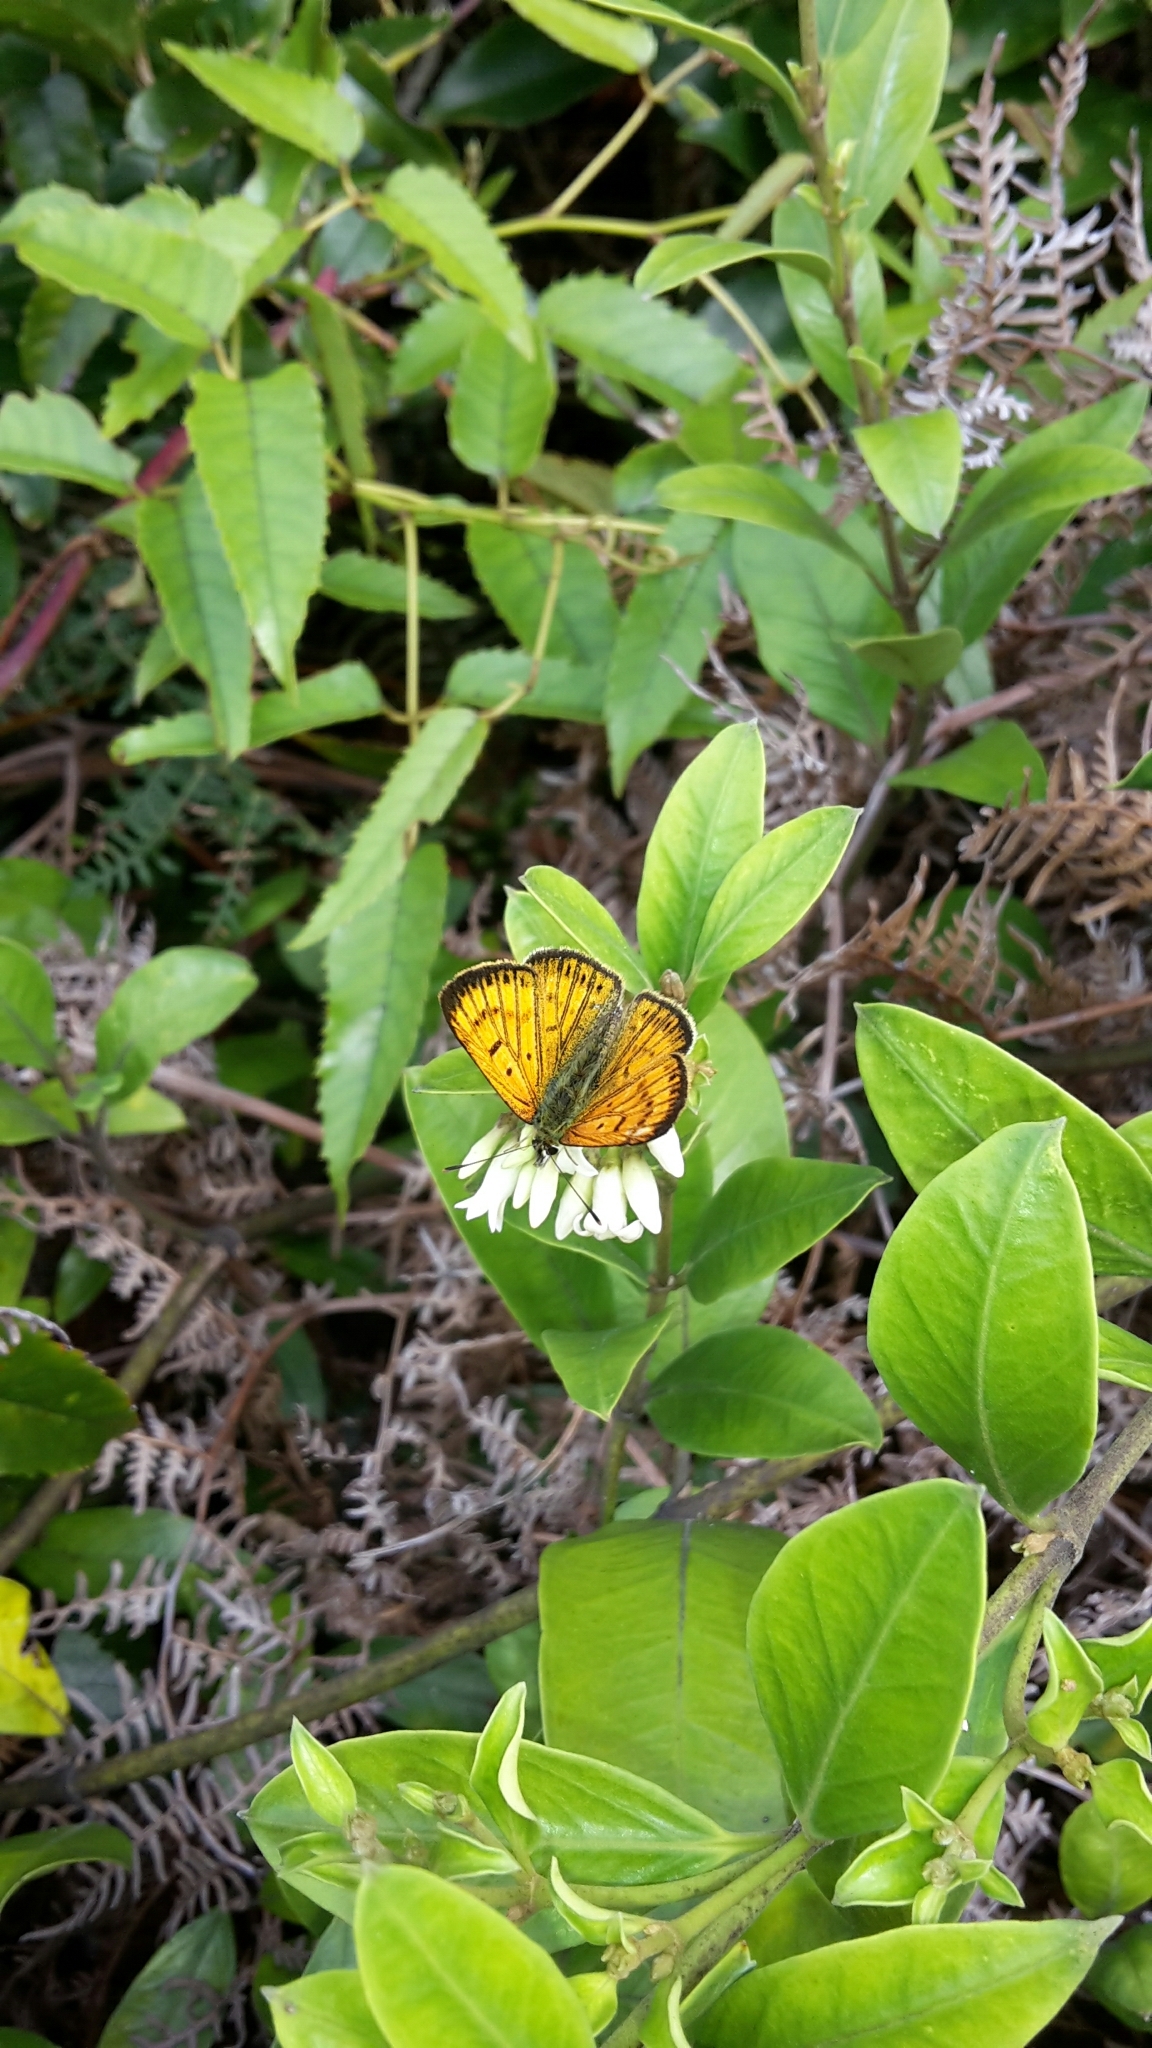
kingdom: Animalia
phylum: Arthropoda
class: Insecta
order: Lepidoptera
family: Lycaenidae
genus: Lycaena
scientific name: Lycaena salustius
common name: North island coastal copper
